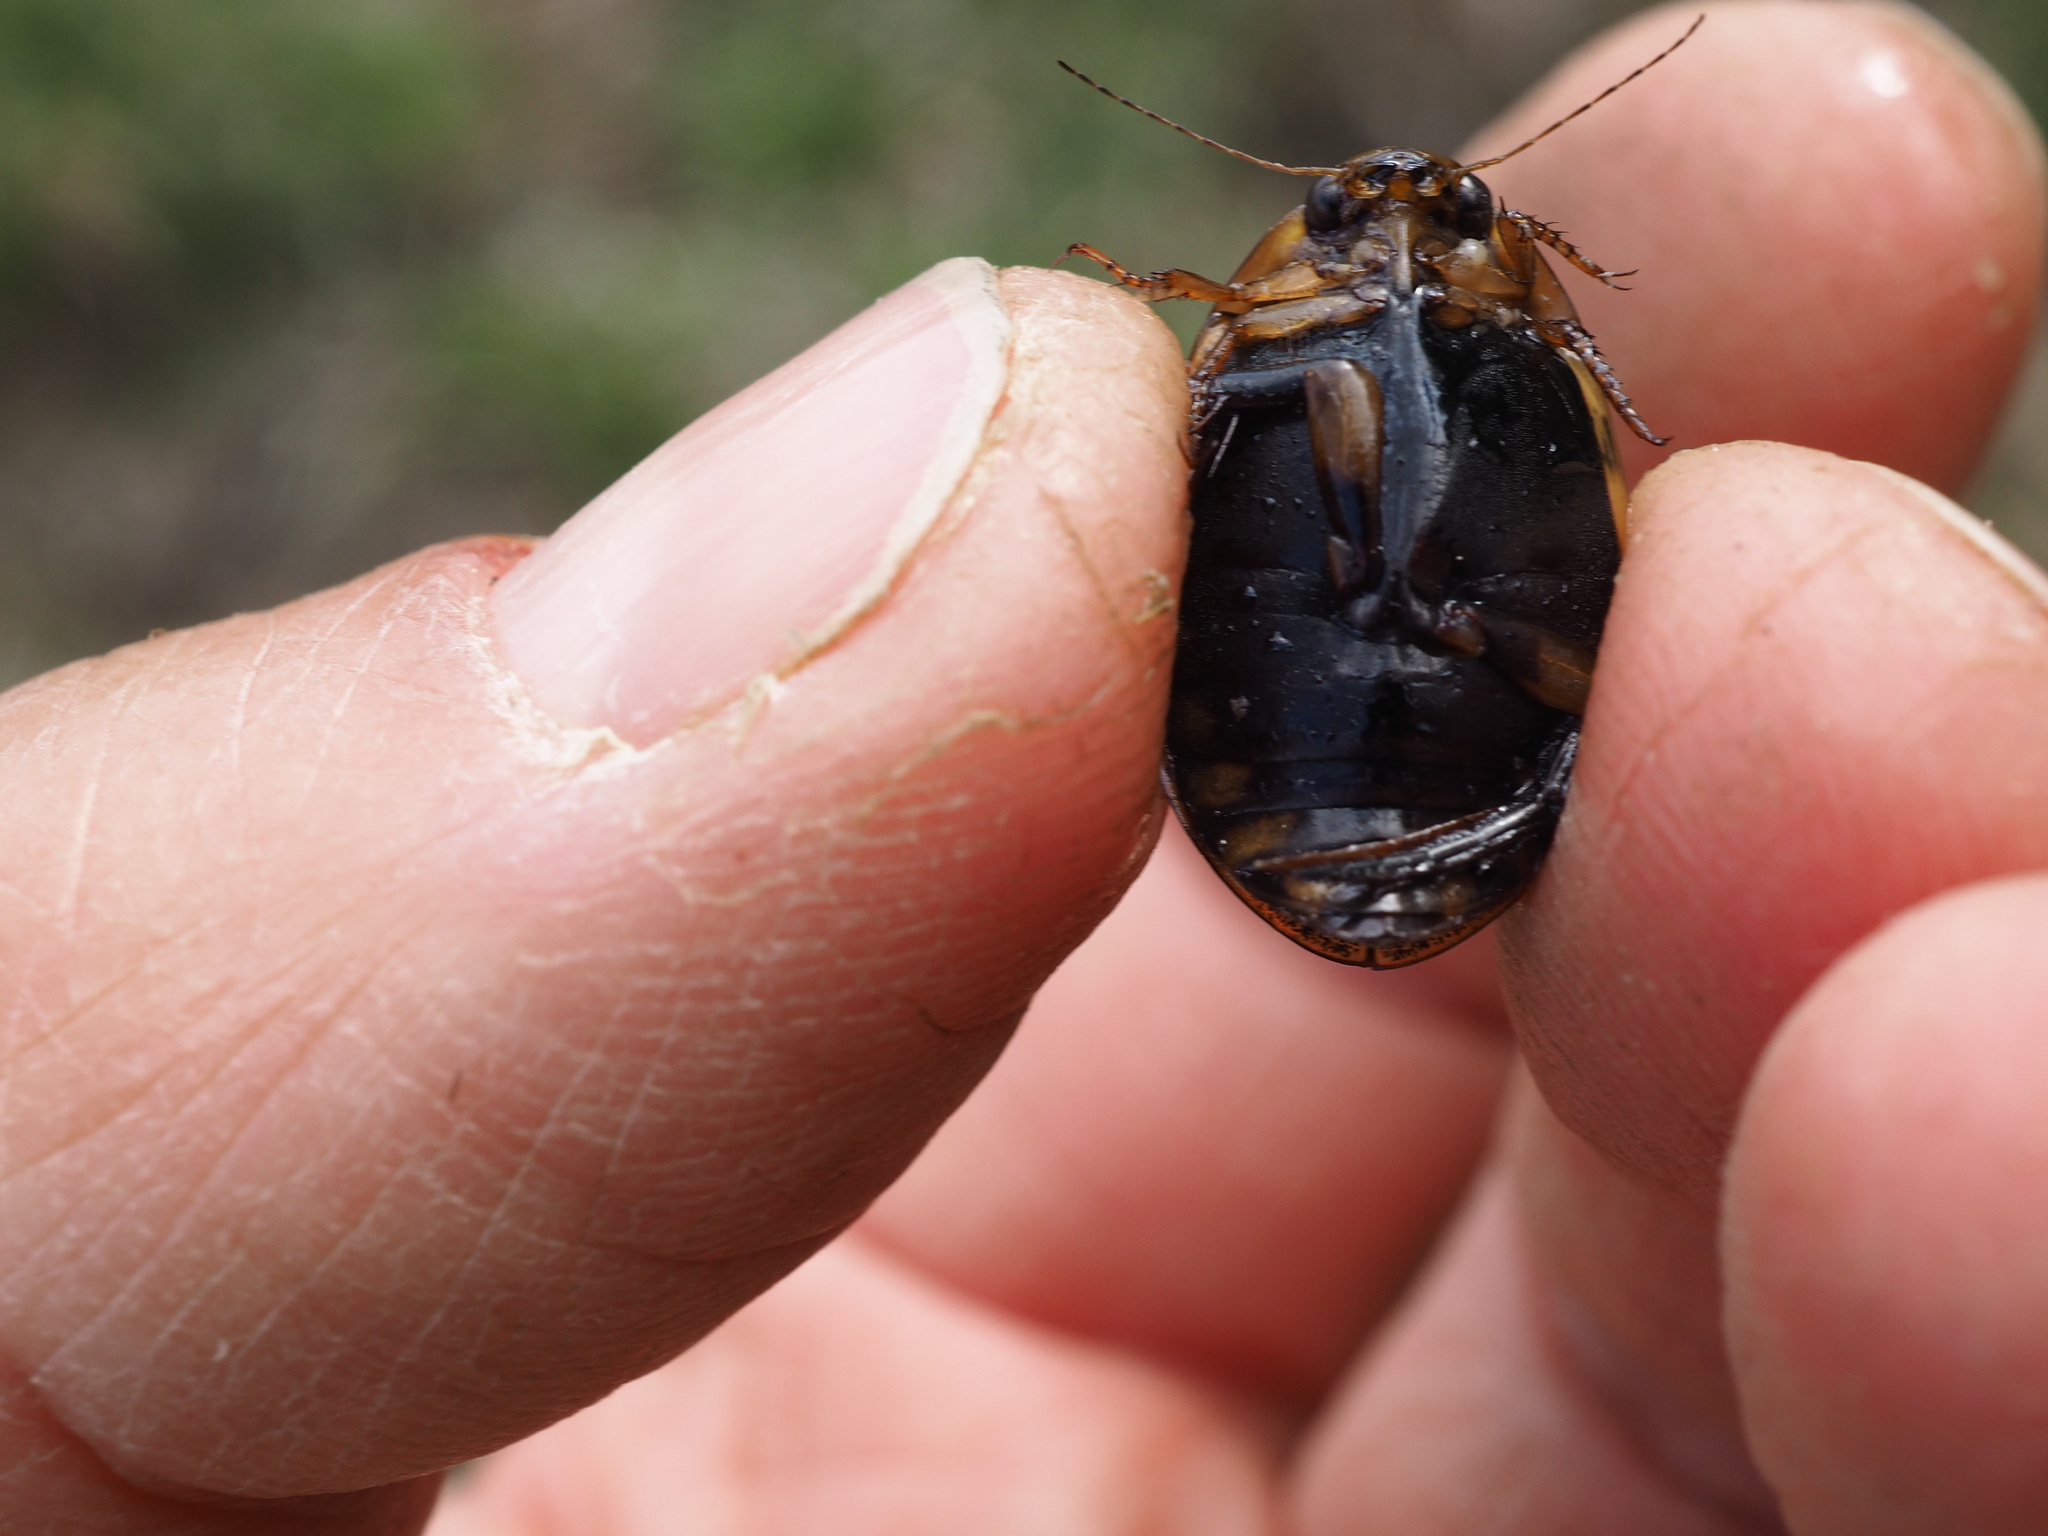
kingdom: Animalia
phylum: Arthropoda
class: Insecta
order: Coleoptera
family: Dytiscidae
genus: Acilius
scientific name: Acilius sulcatus
